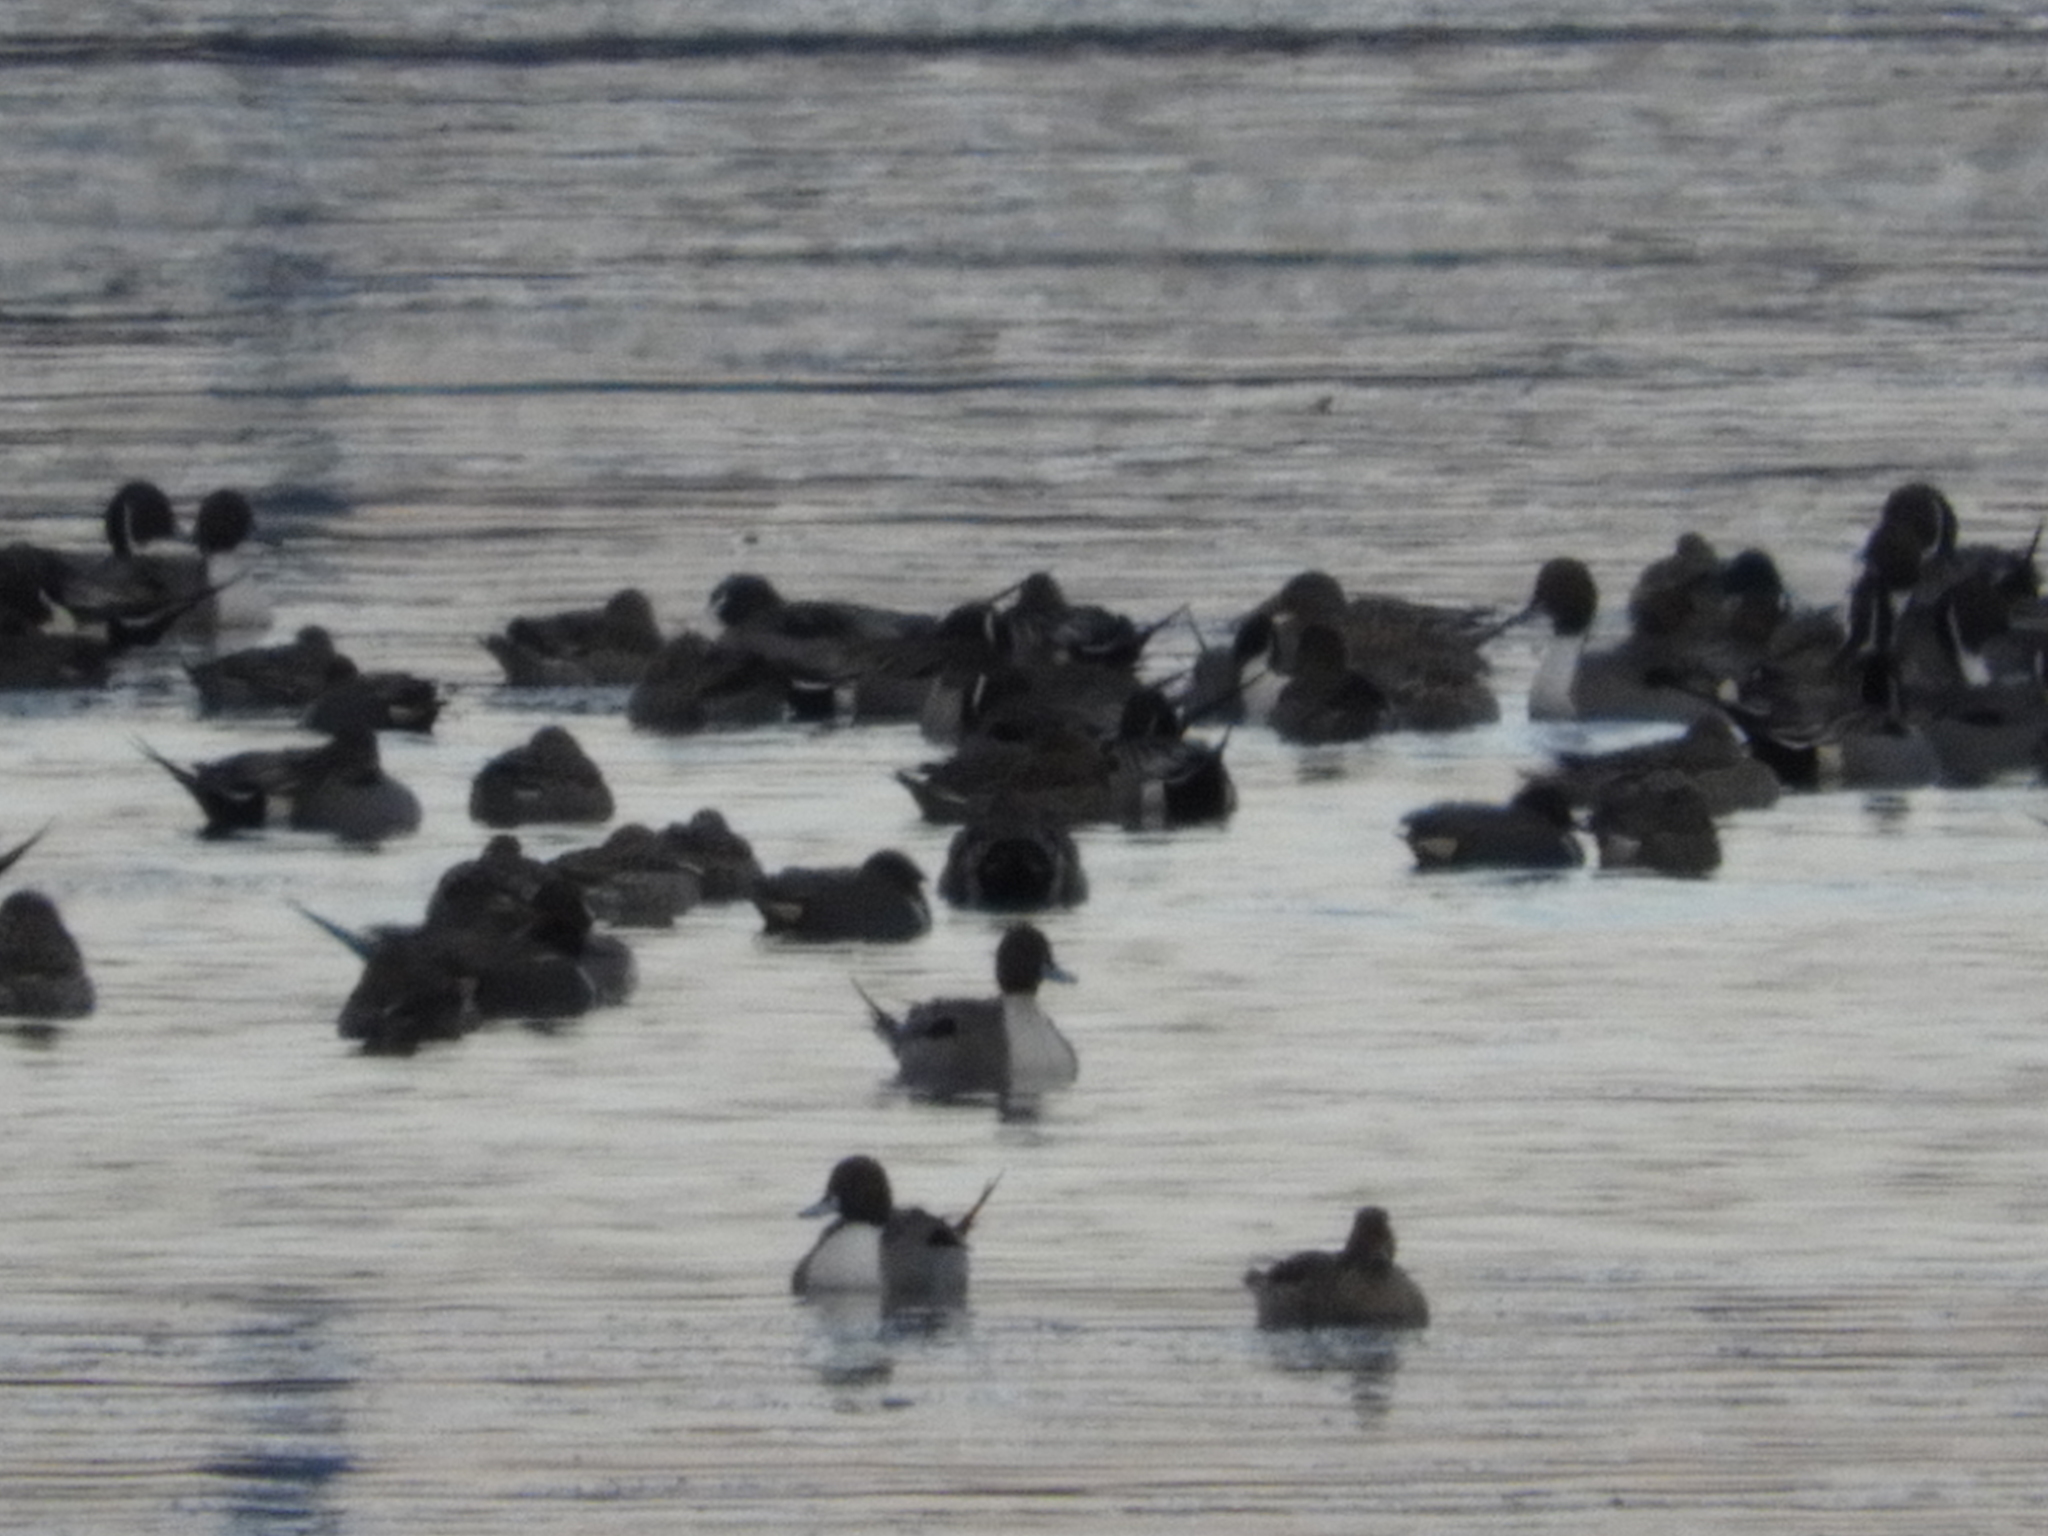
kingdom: Animalia
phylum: Chordata
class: Aves
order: Anseriformes
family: Anatidae
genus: Anas
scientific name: Anas acuta
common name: Northern pintail
